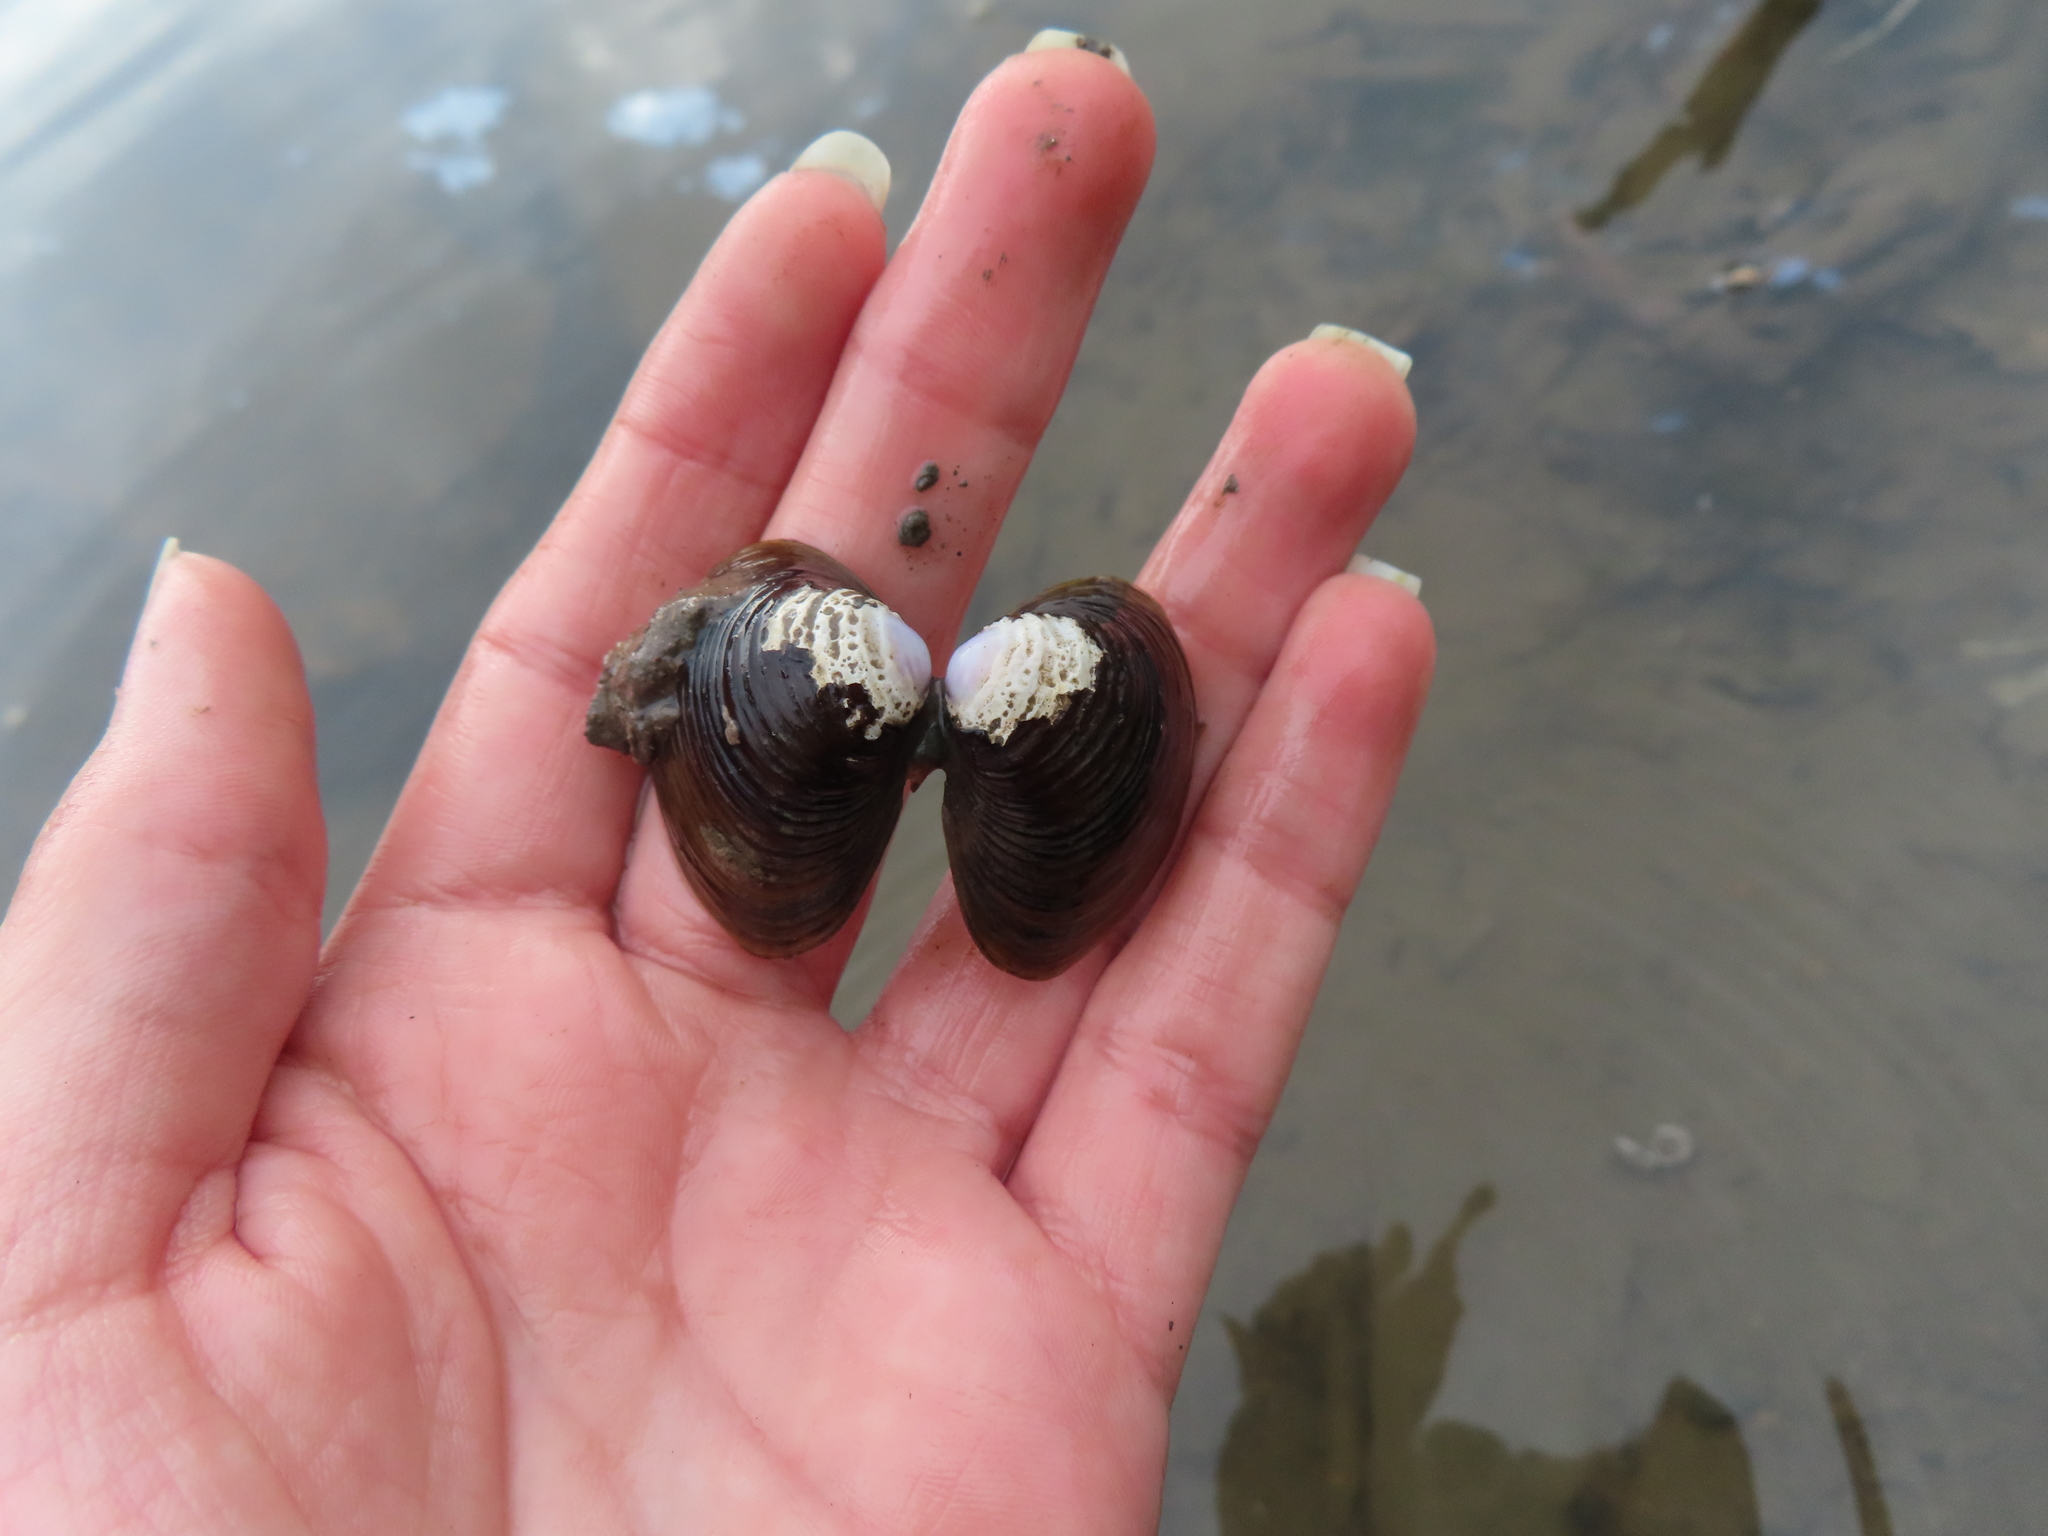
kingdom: Animalia
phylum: Mollusca
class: Bivalvia
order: Venerida
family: Cyrenidae
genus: Corbicula
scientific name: Corbicula fluminea
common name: Asian clam
